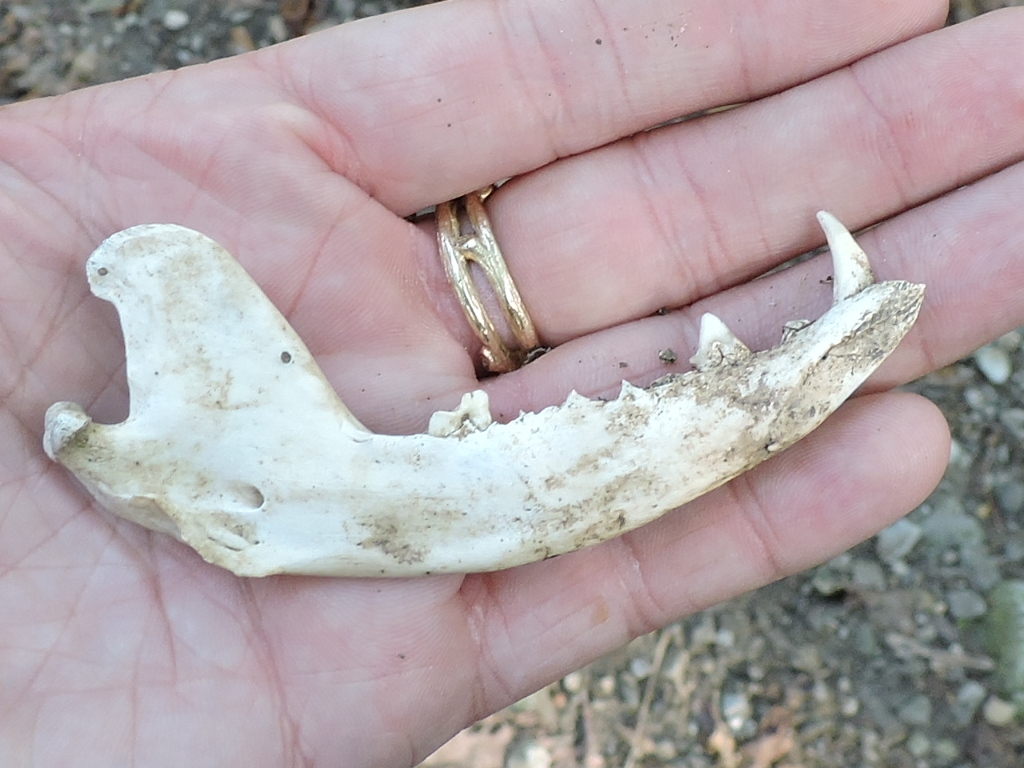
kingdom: Animalia
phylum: Chordata
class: Mammalia
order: Carnivora
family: Procyonidae
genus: Procyon
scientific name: Procyon lotor
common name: Raccoon
